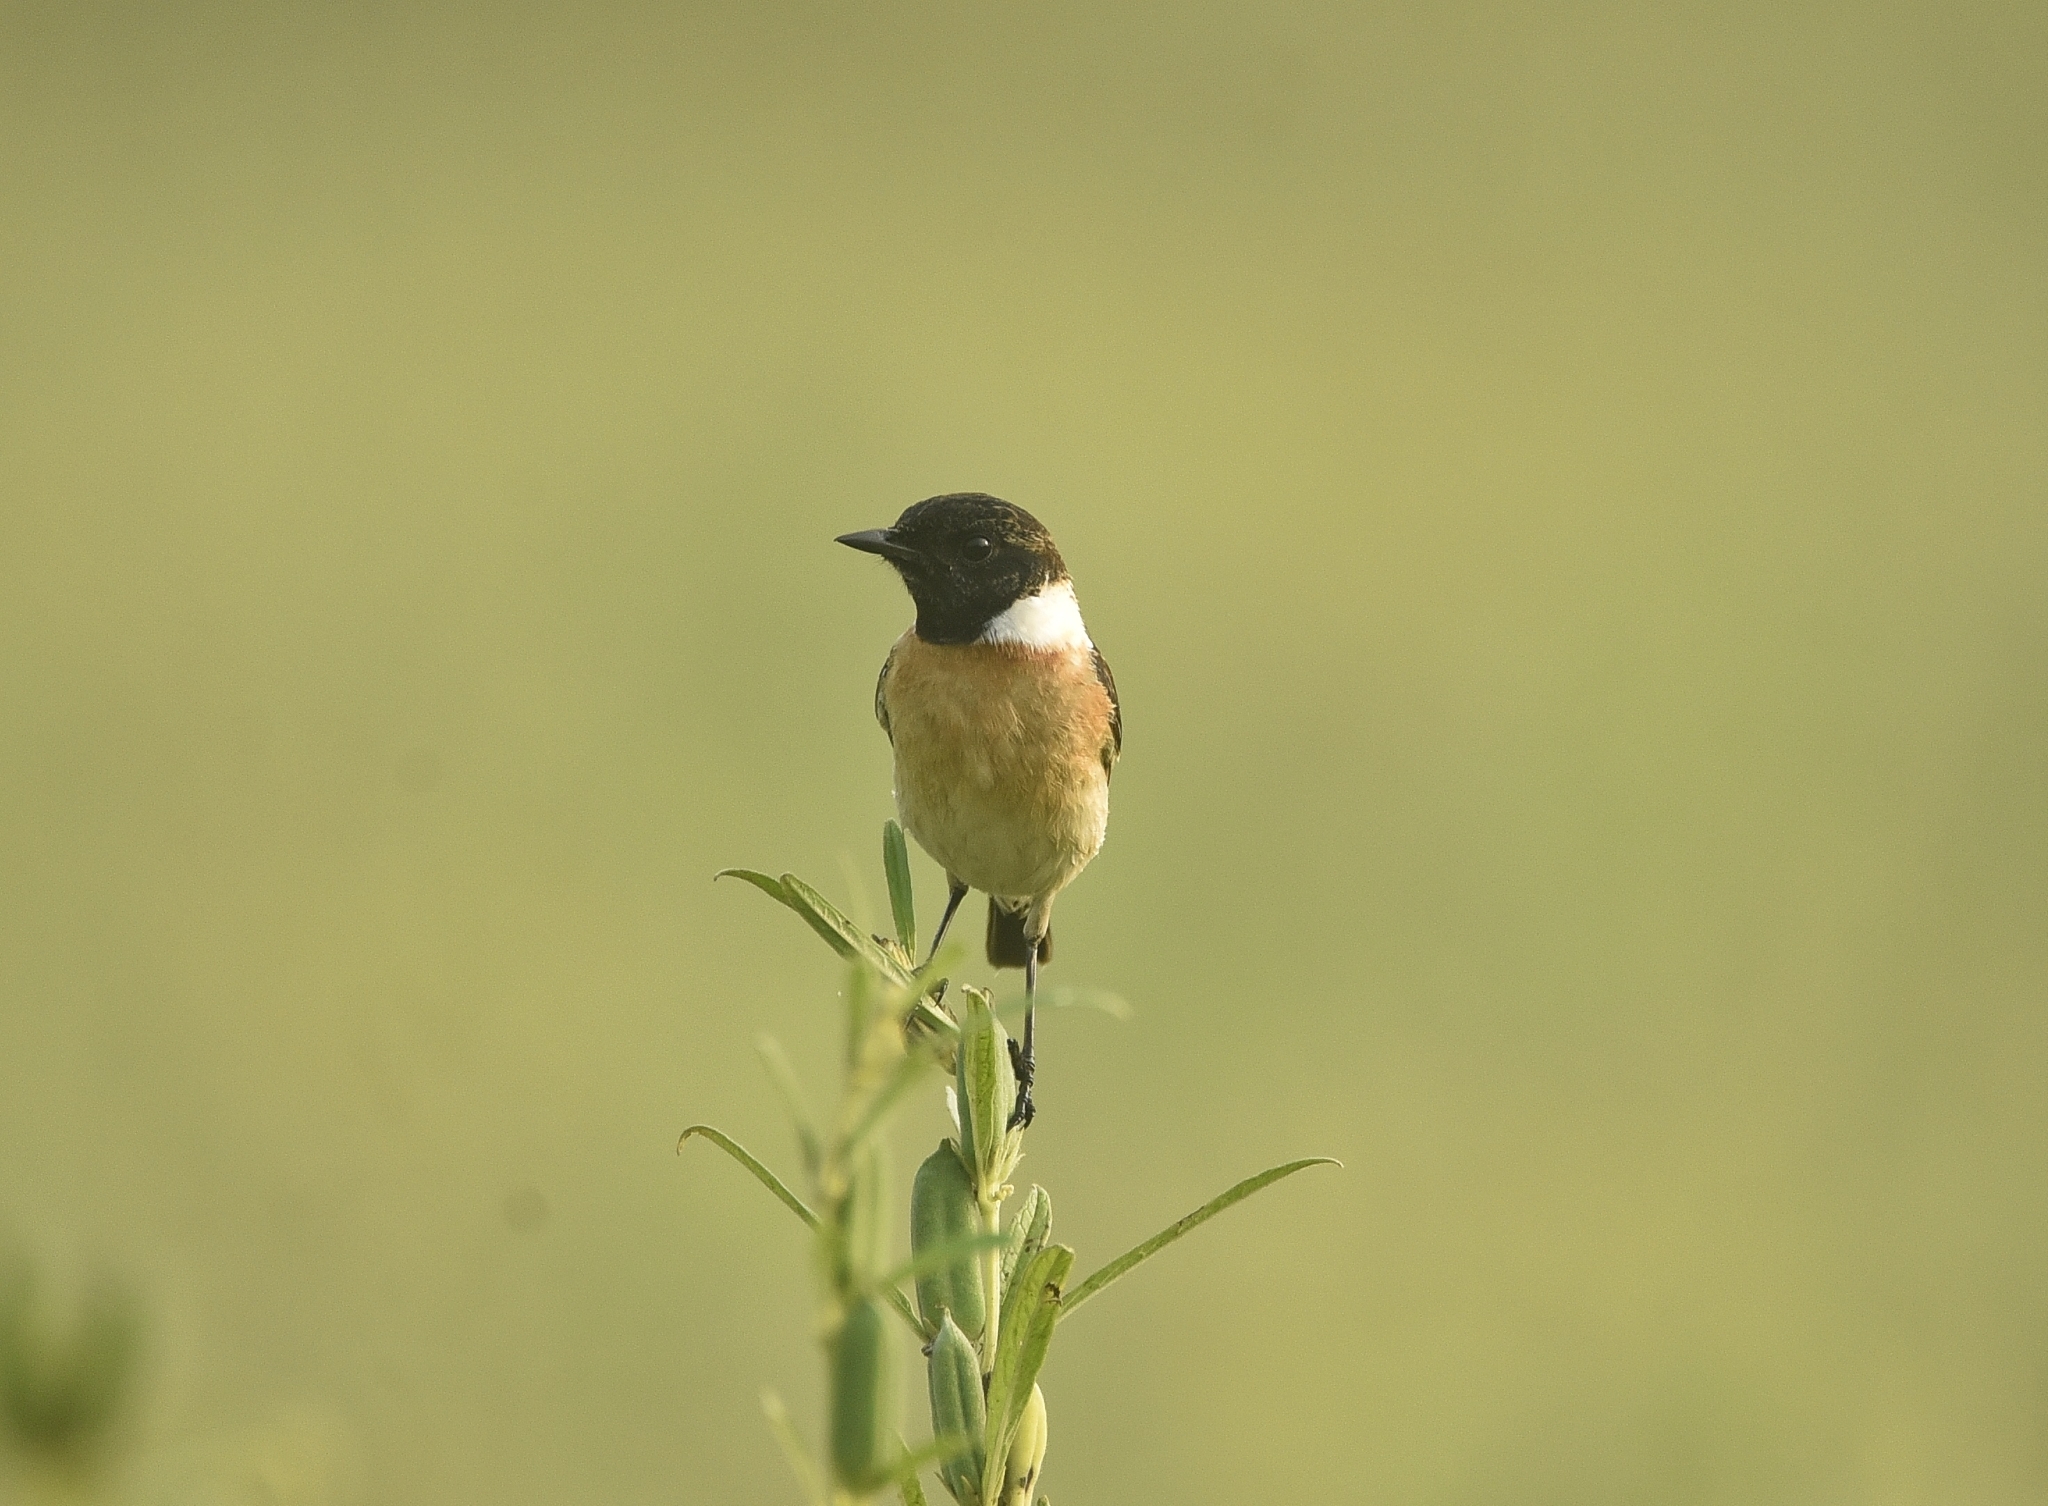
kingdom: Animalia
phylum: Chordata
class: Aves
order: Passeriformes
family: Muscicapidae
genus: Saxicola
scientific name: Saxicola maurus
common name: Siberian stonechat
